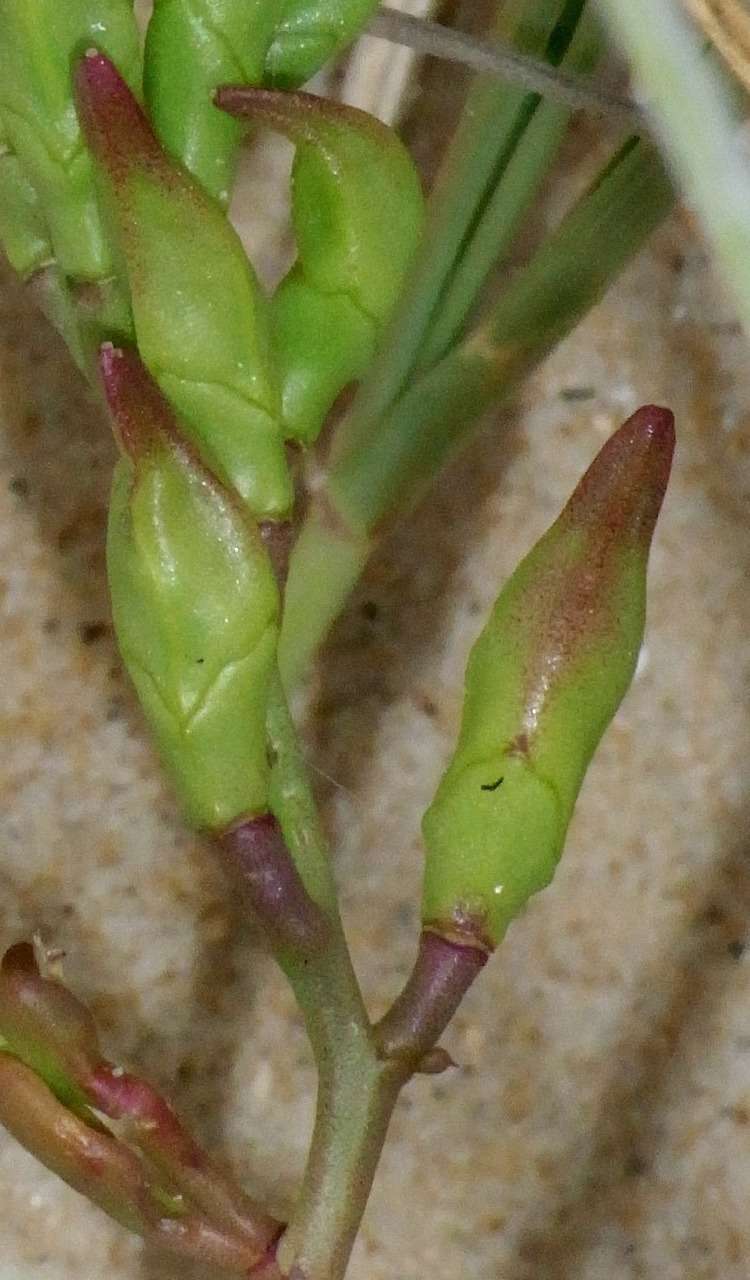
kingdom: Plantae
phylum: Tracheophyta
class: Magnoliopsida
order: Brassicales
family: Brassicaceae
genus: Cakile
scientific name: Cakile maritima
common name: Sea rocket
